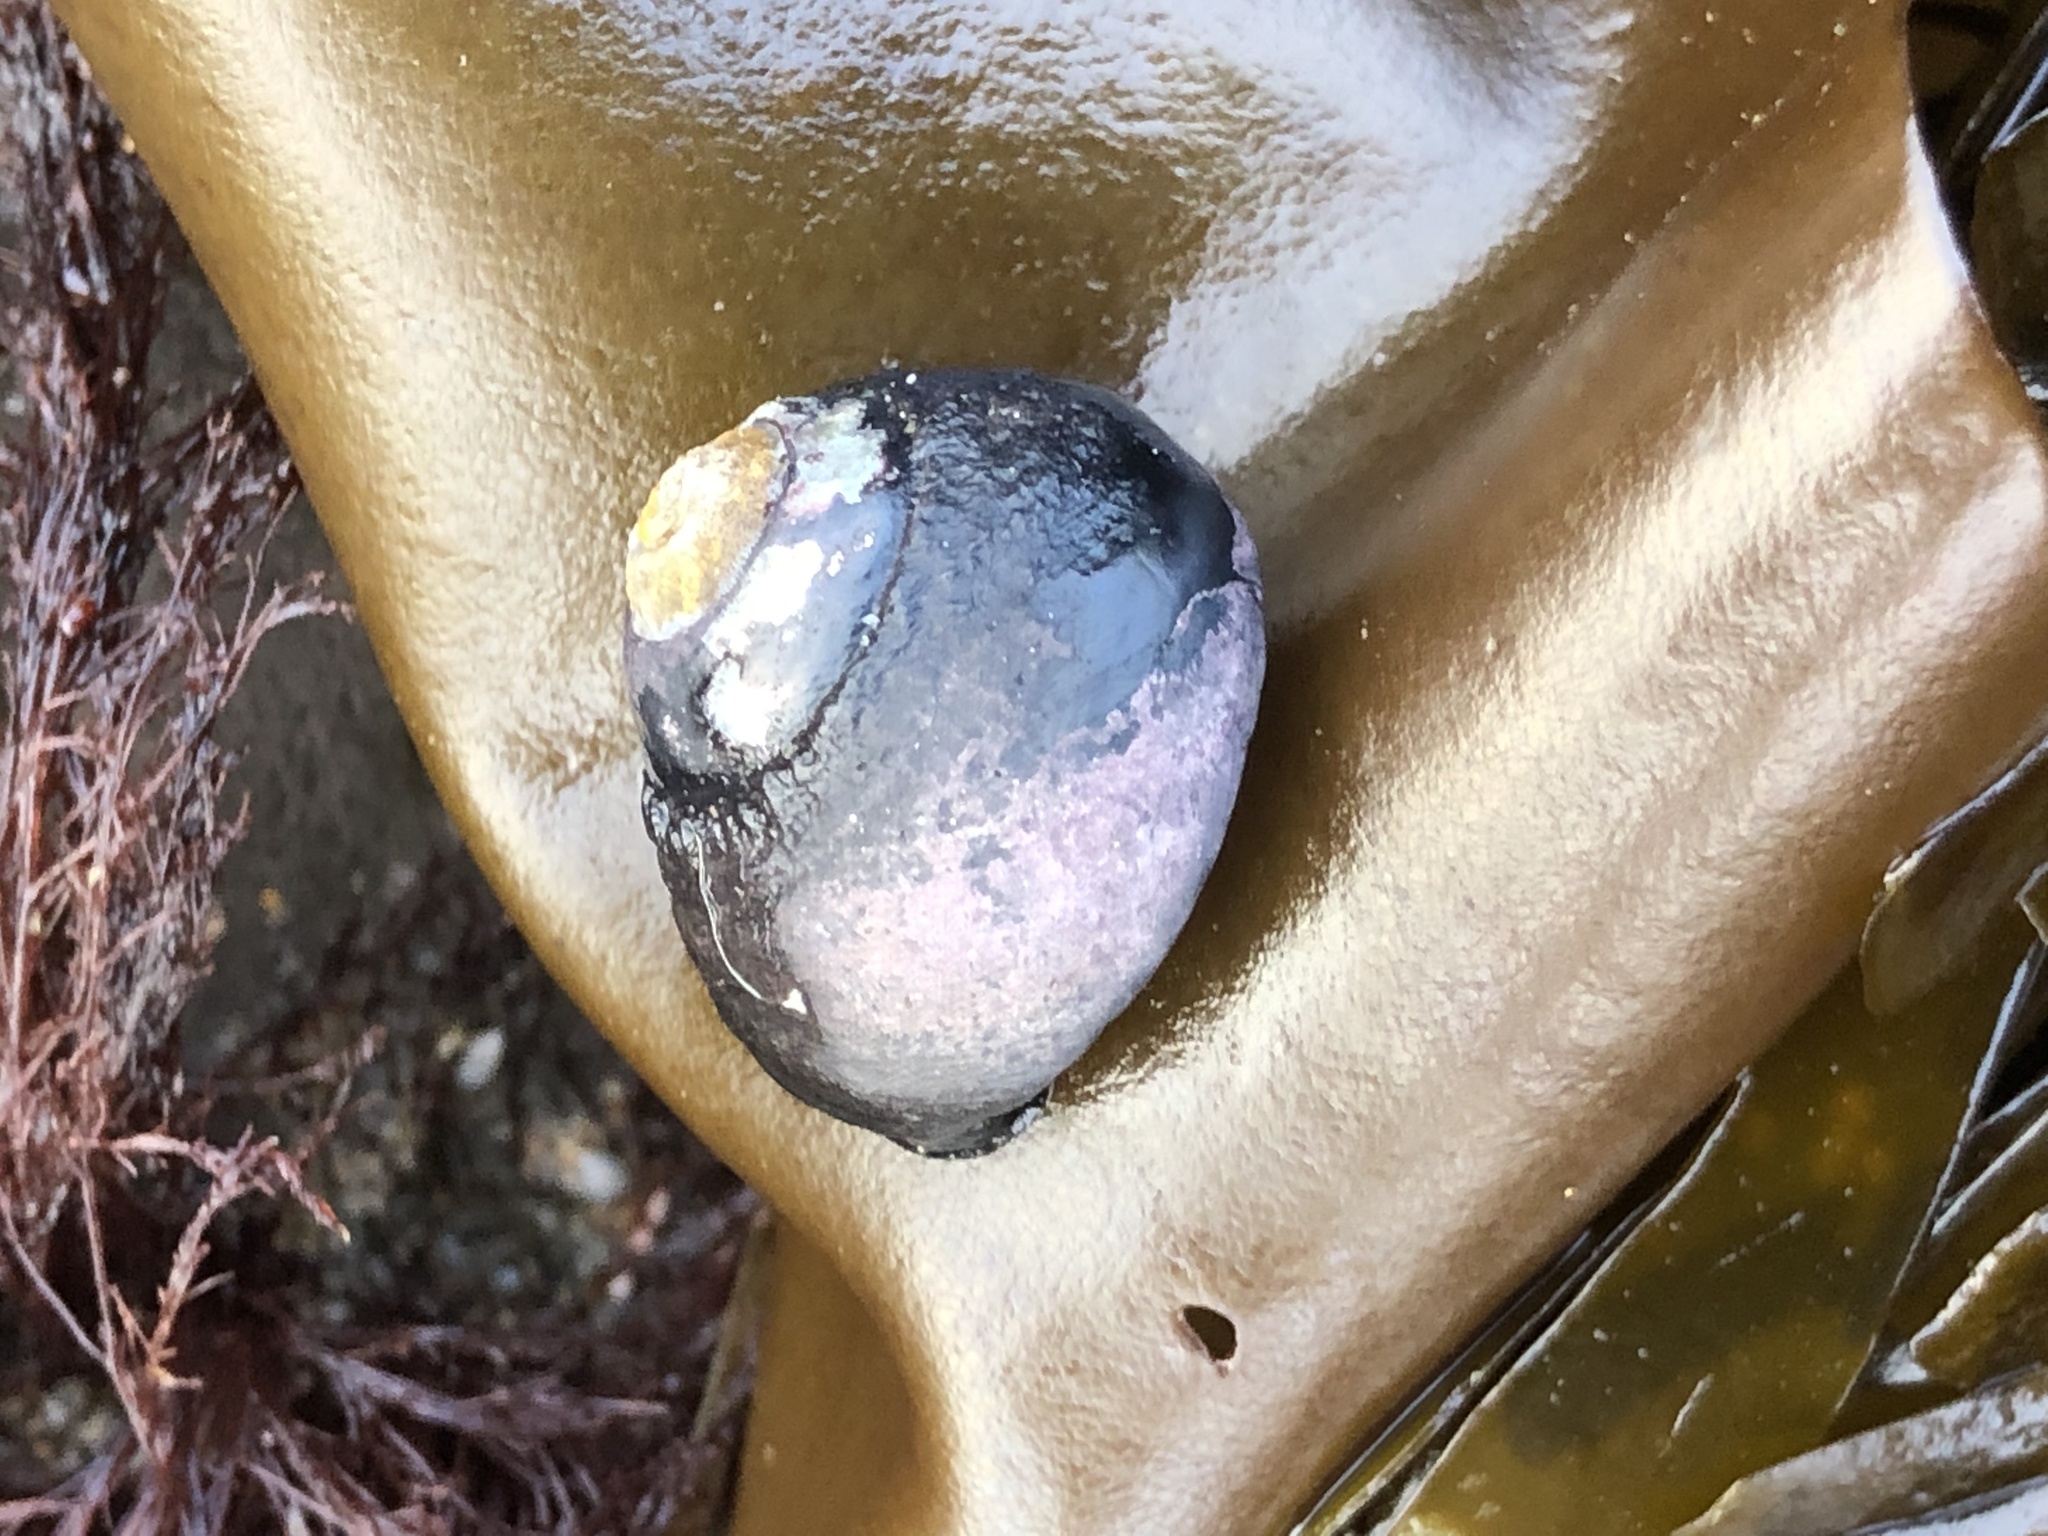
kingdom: Animalia
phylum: Mollusca
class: Gastropoda
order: Trochida
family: Tegulidae
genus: Tegula
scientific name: Tegula funebralis
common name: Black tegula
